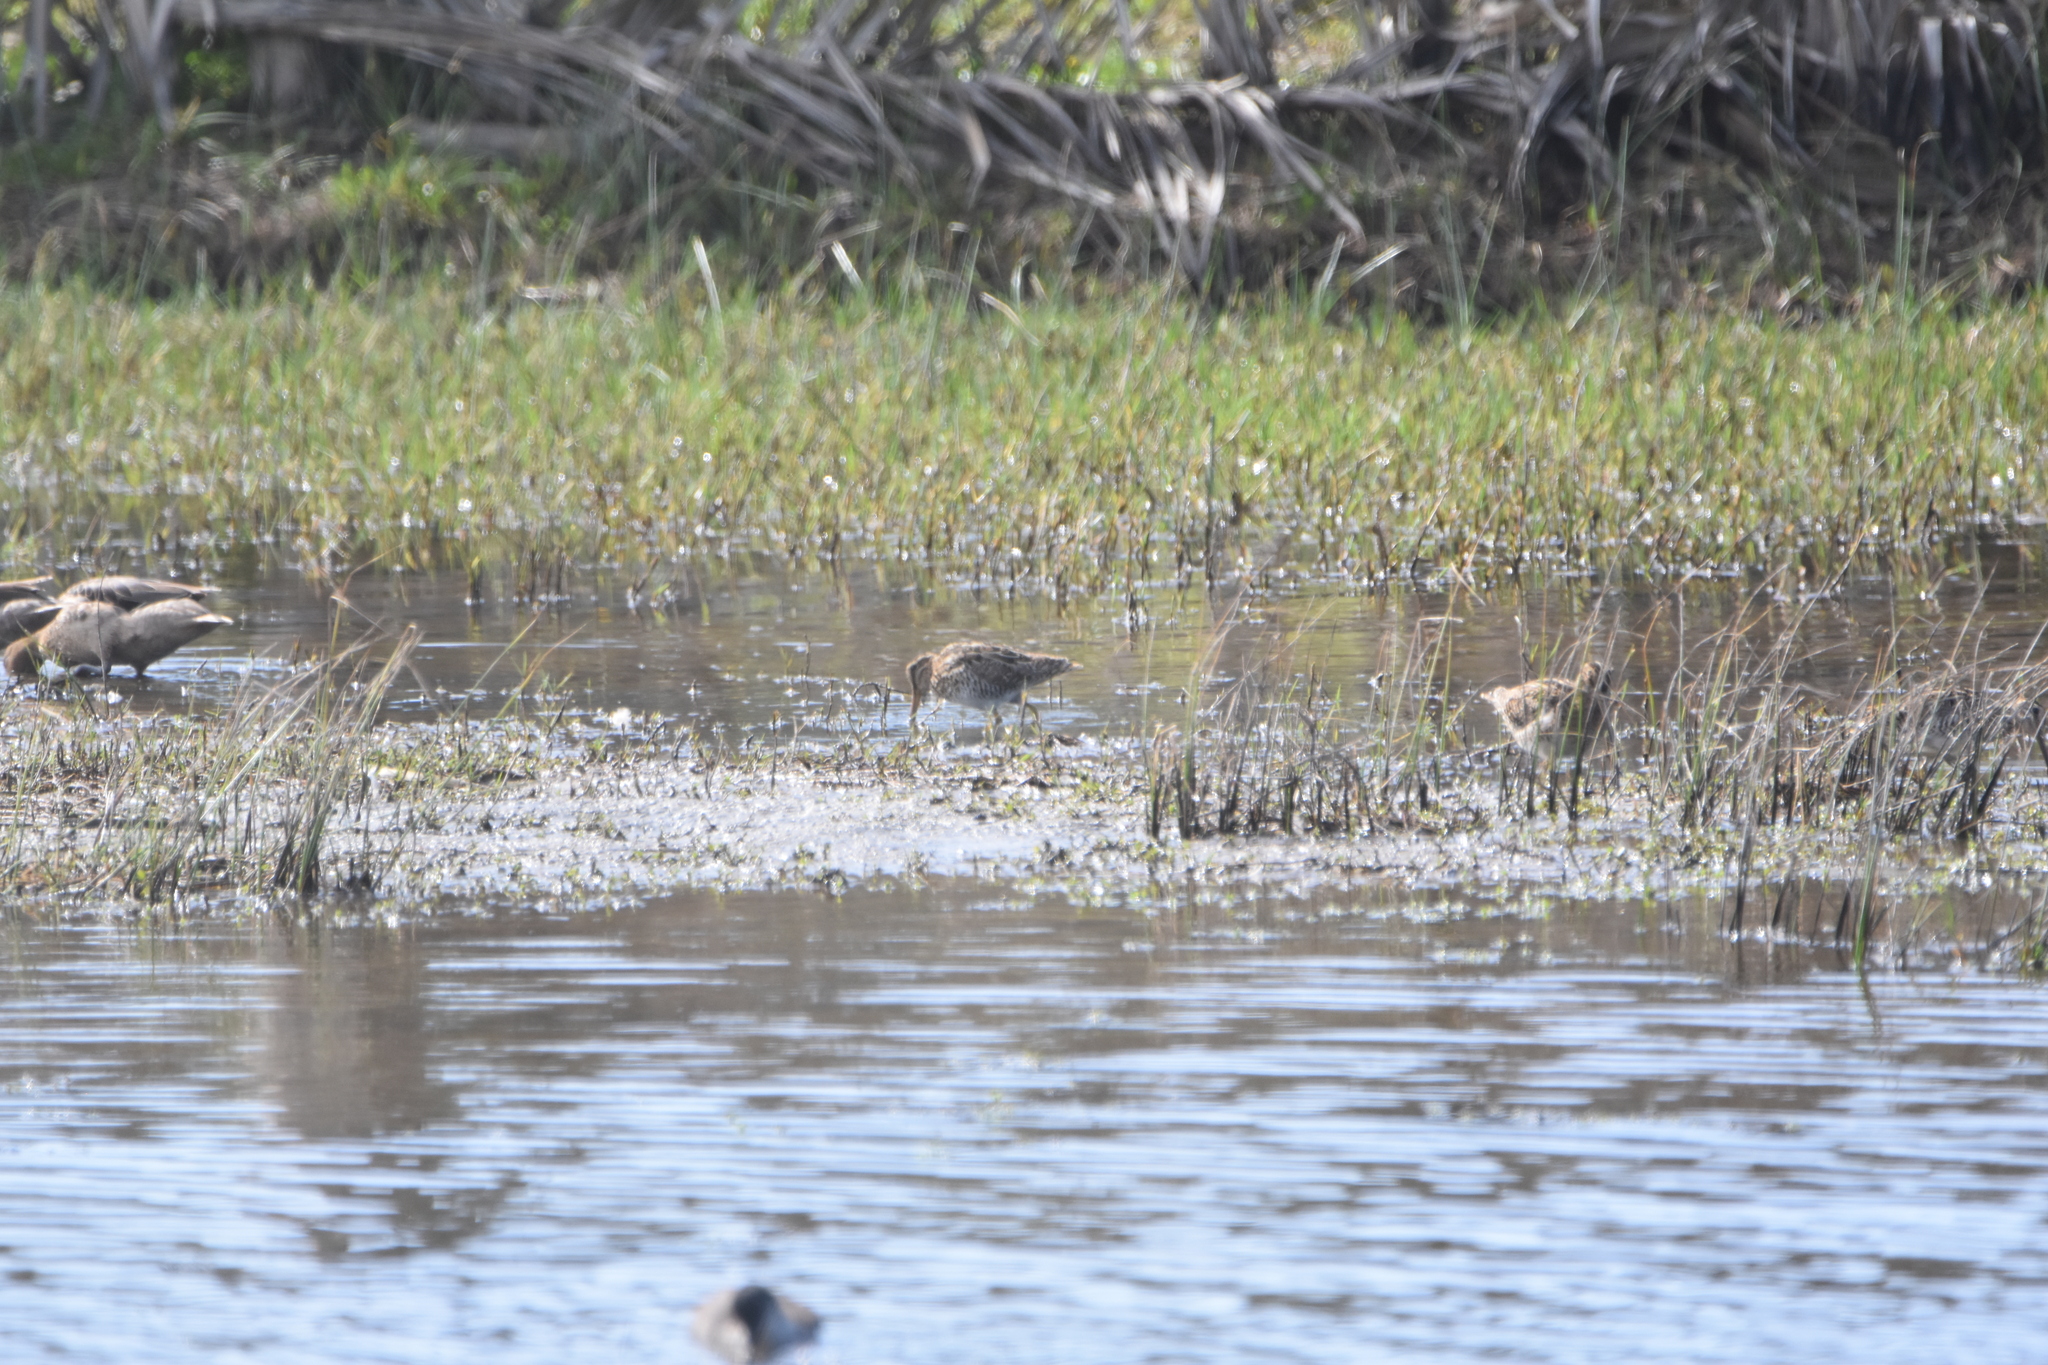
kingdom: Animalia
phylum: Chordata
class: Aves
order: Charadriiformes
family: Scolopacidae
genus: Gallinago
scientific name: Gallinago magellanica
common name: Magellanic snipe
